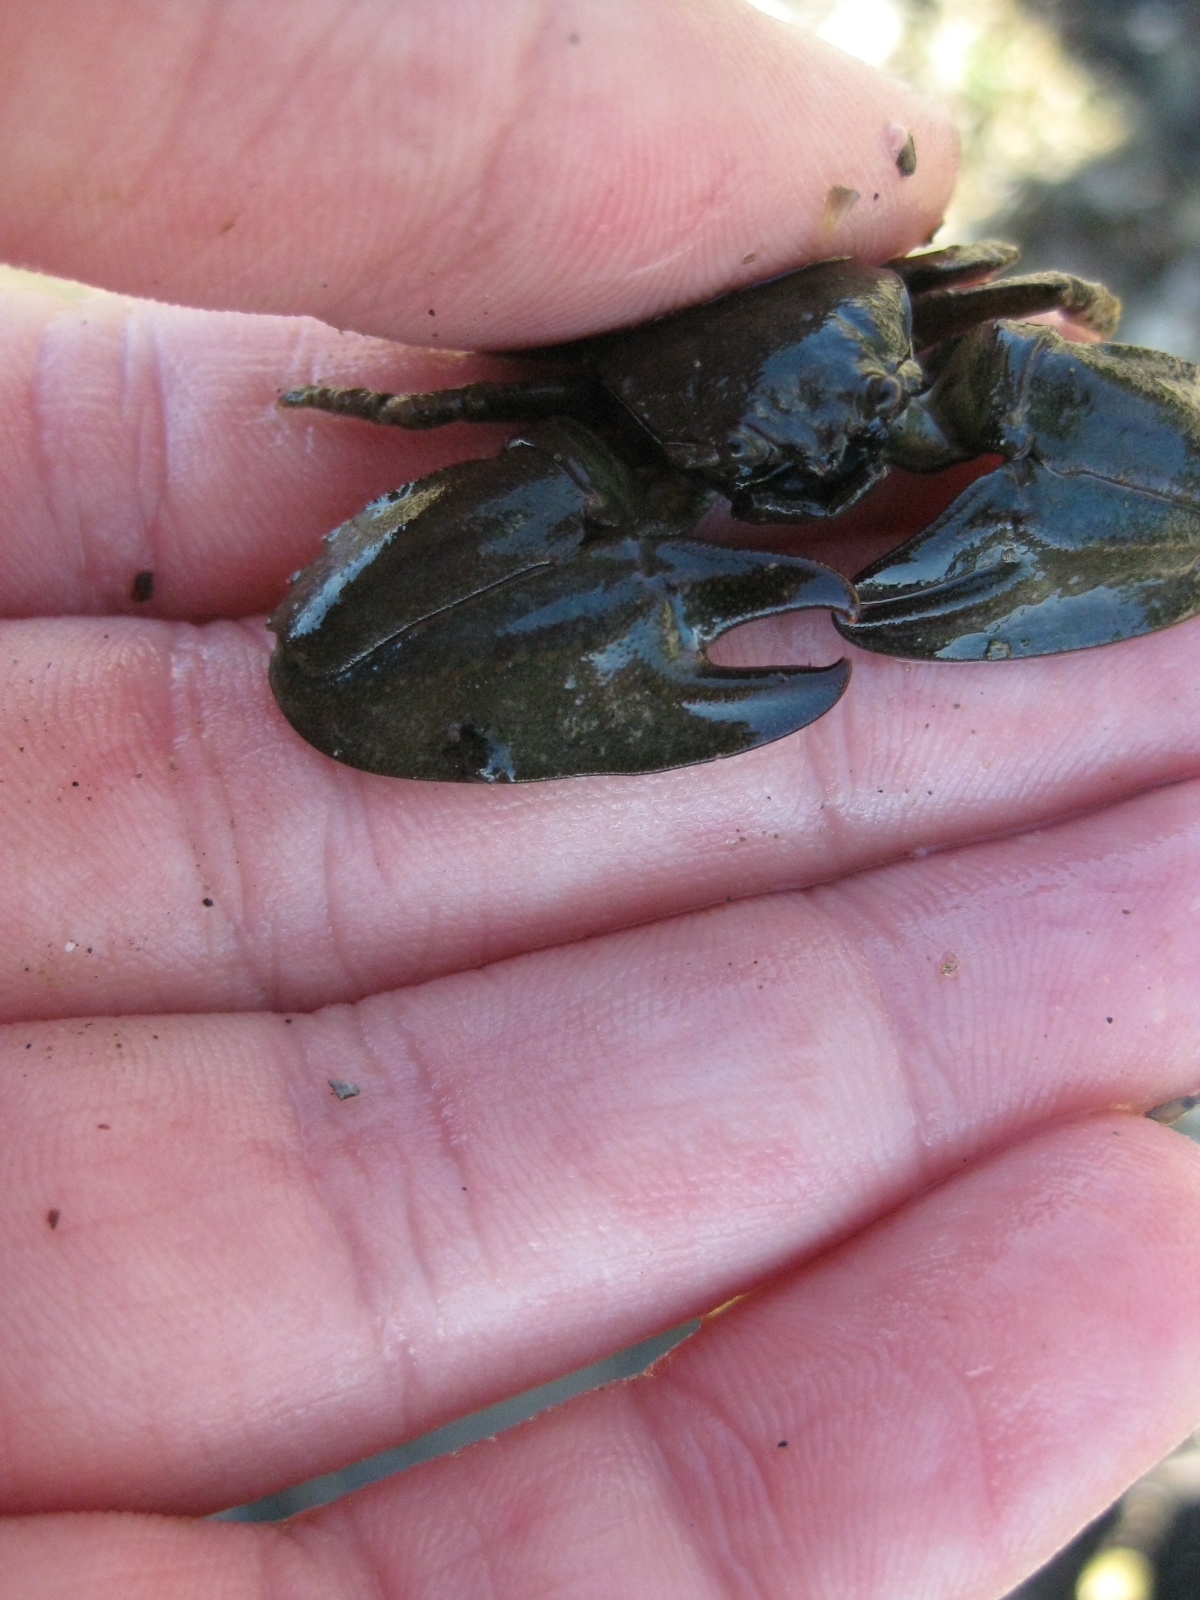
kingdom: Animalia
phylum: Arthropoda
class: Malacostraca
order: Decapoda
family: Porcellanidae
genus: Petrolisthes
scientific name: Petrolisthes elongatus
